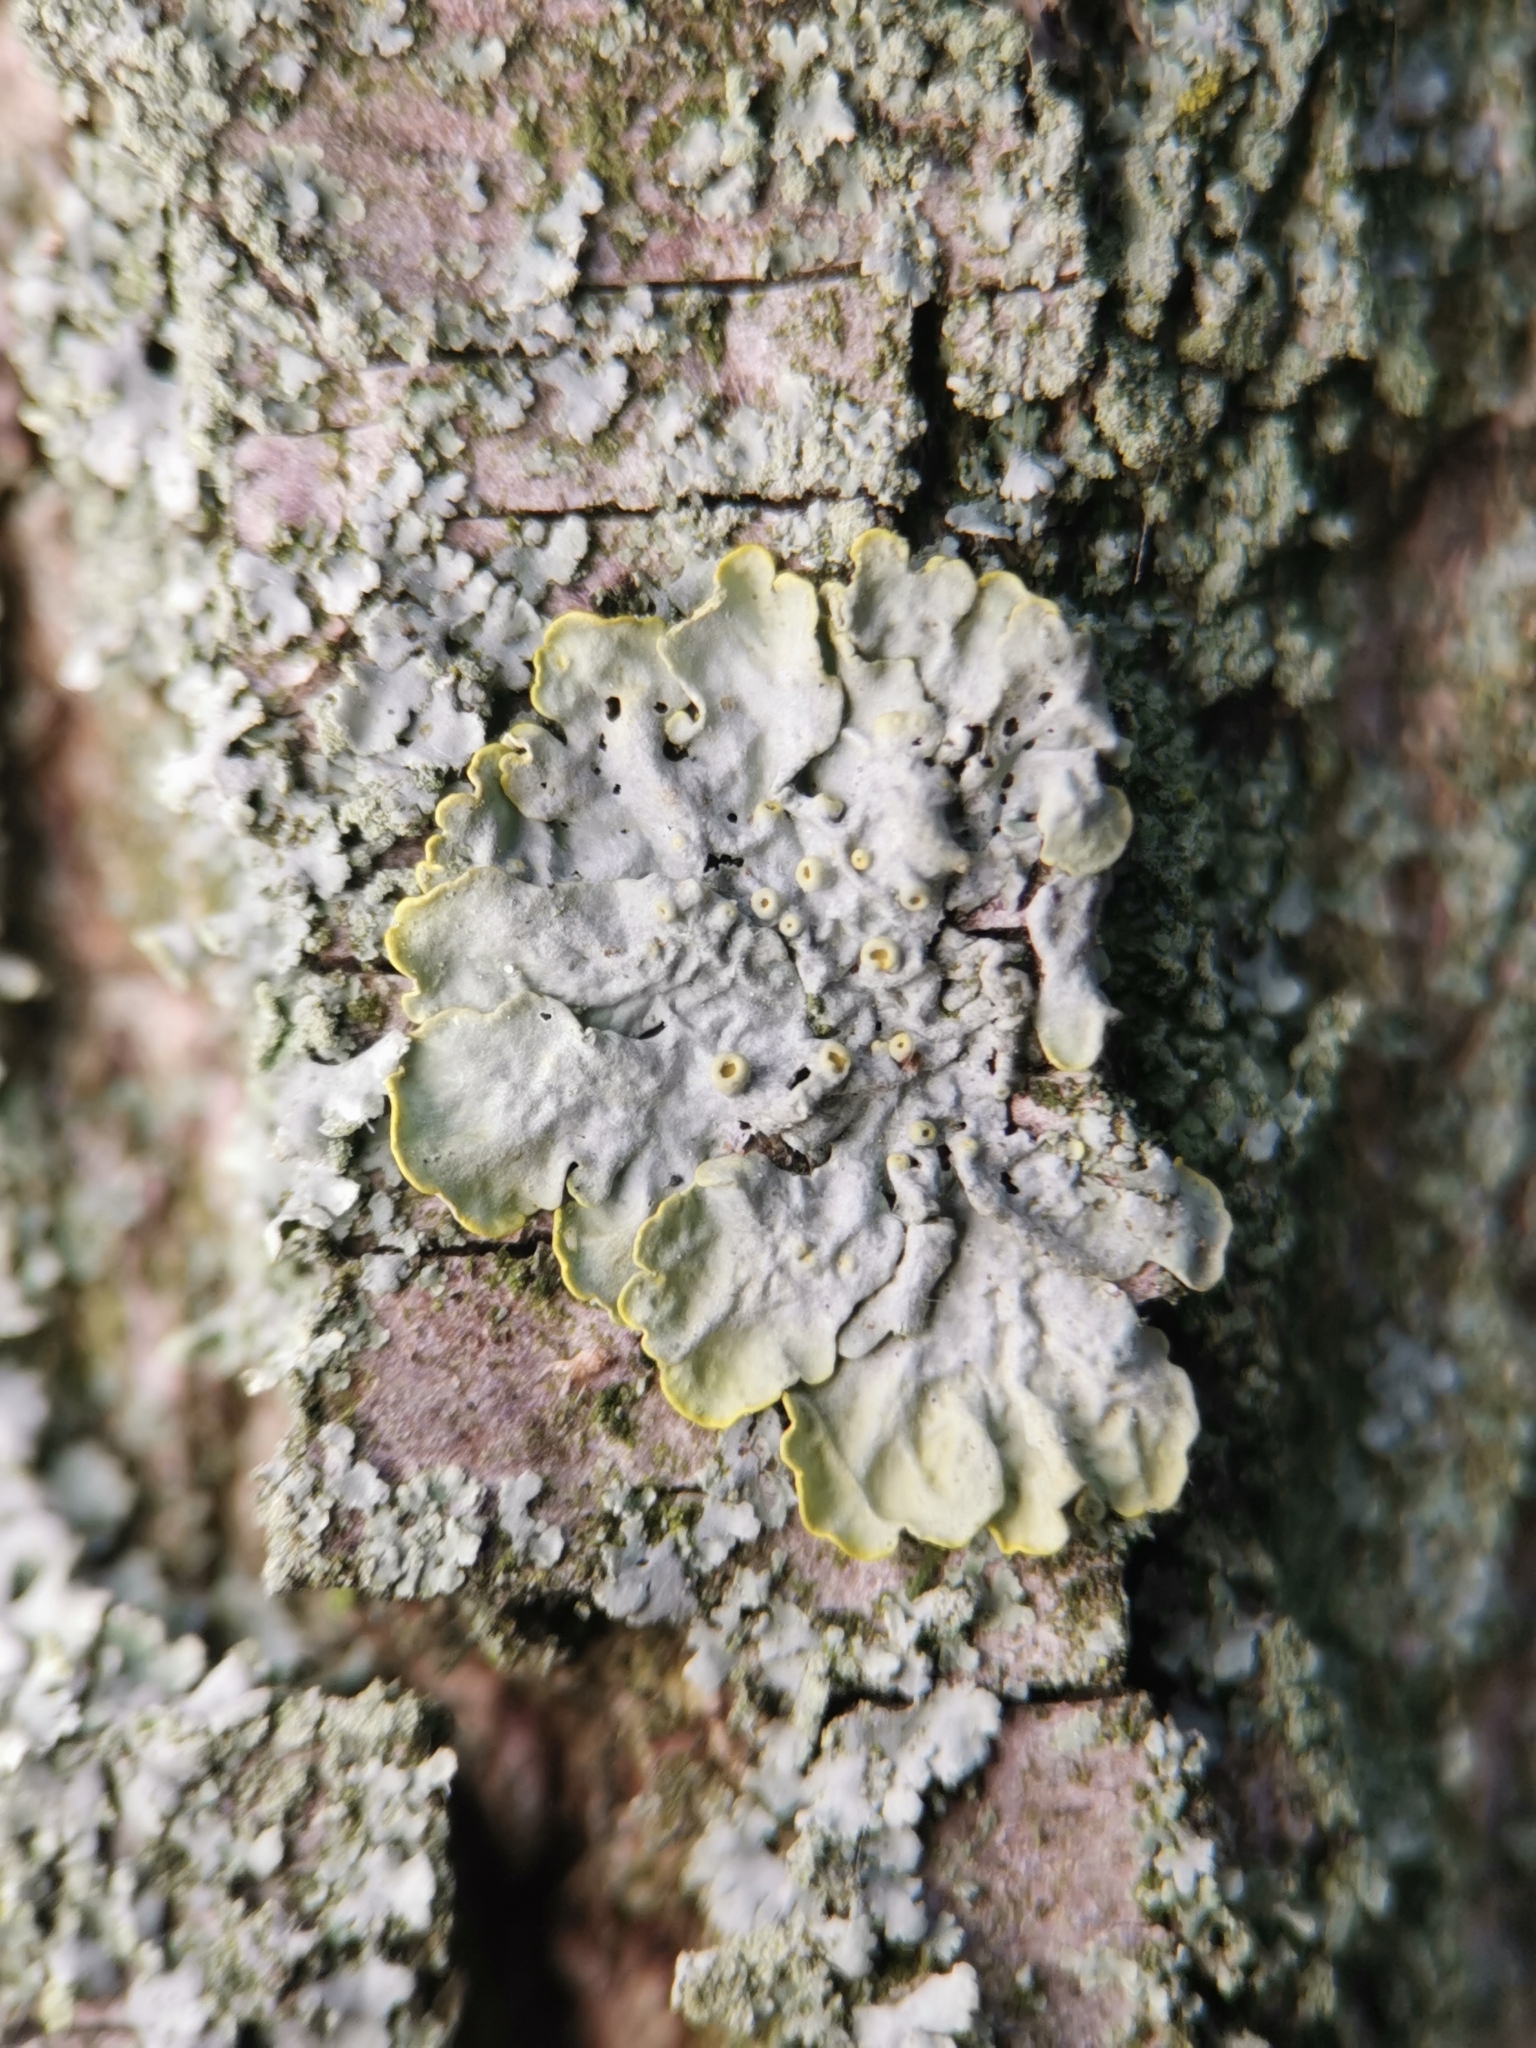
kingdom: Fungi
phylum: Ascomycota
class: Lecanoromycetes
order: Teloschistales
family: Teloschistaceae
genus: Xanthoria
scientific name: Xanthoria parietina
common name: Common orange lichen
